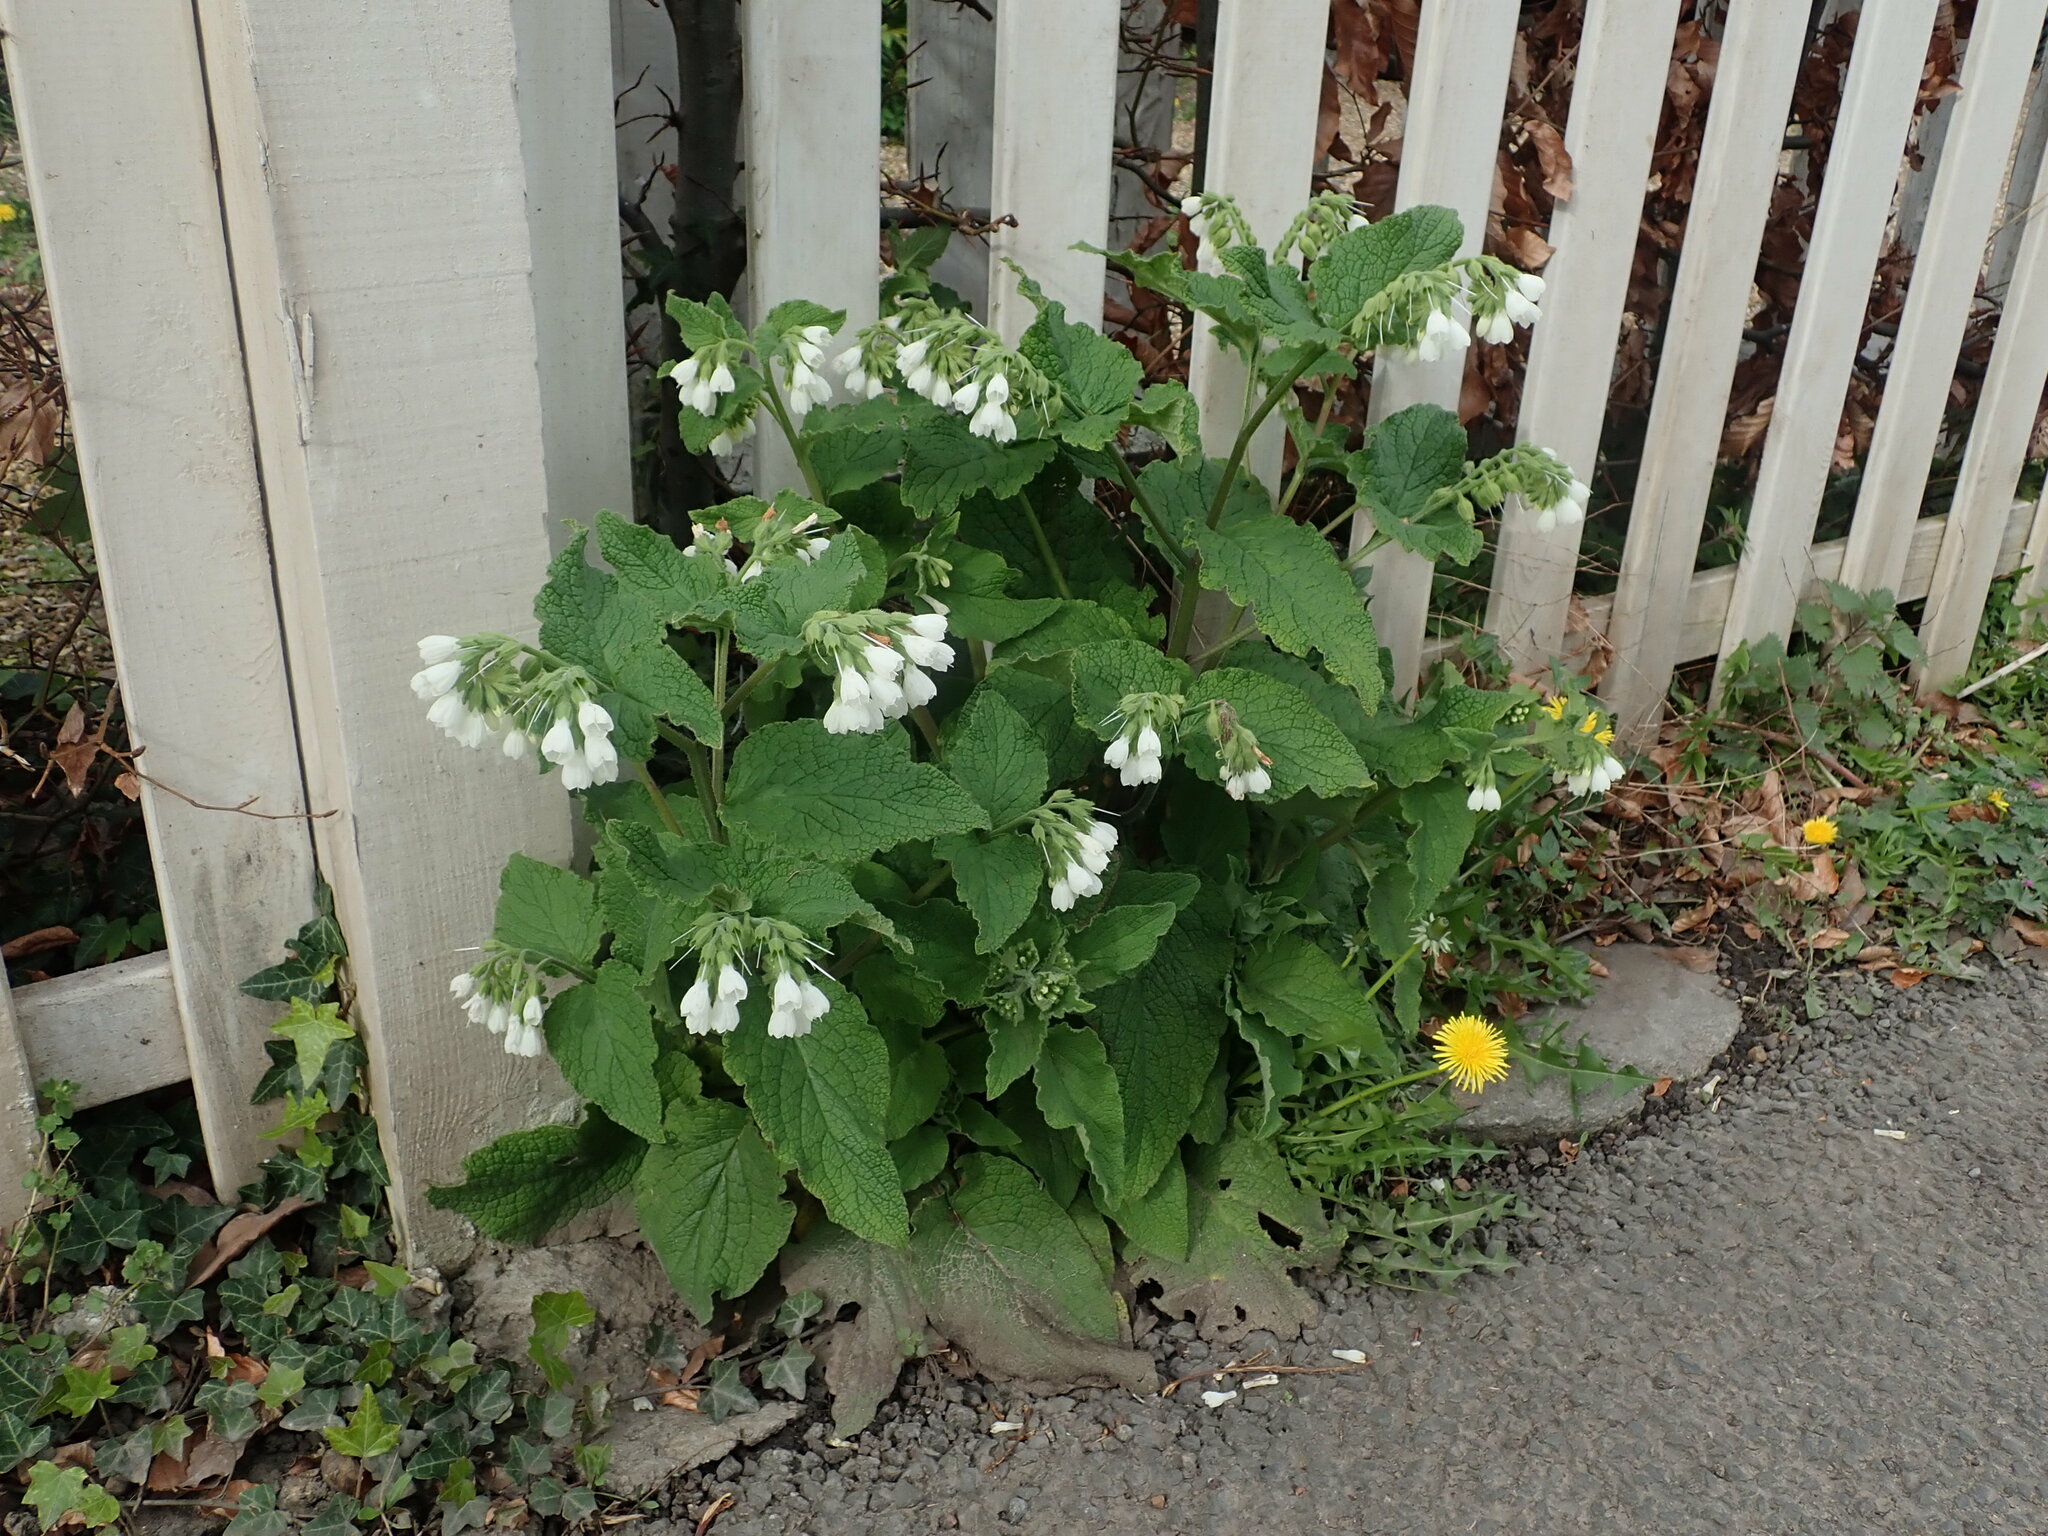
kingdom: Plantae
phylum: Tracheophyta
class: Magnoliopsida
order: Boraginales
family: Boraginaceae
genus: Symphytum
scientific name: Symphytum orientale
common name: White comfrey
